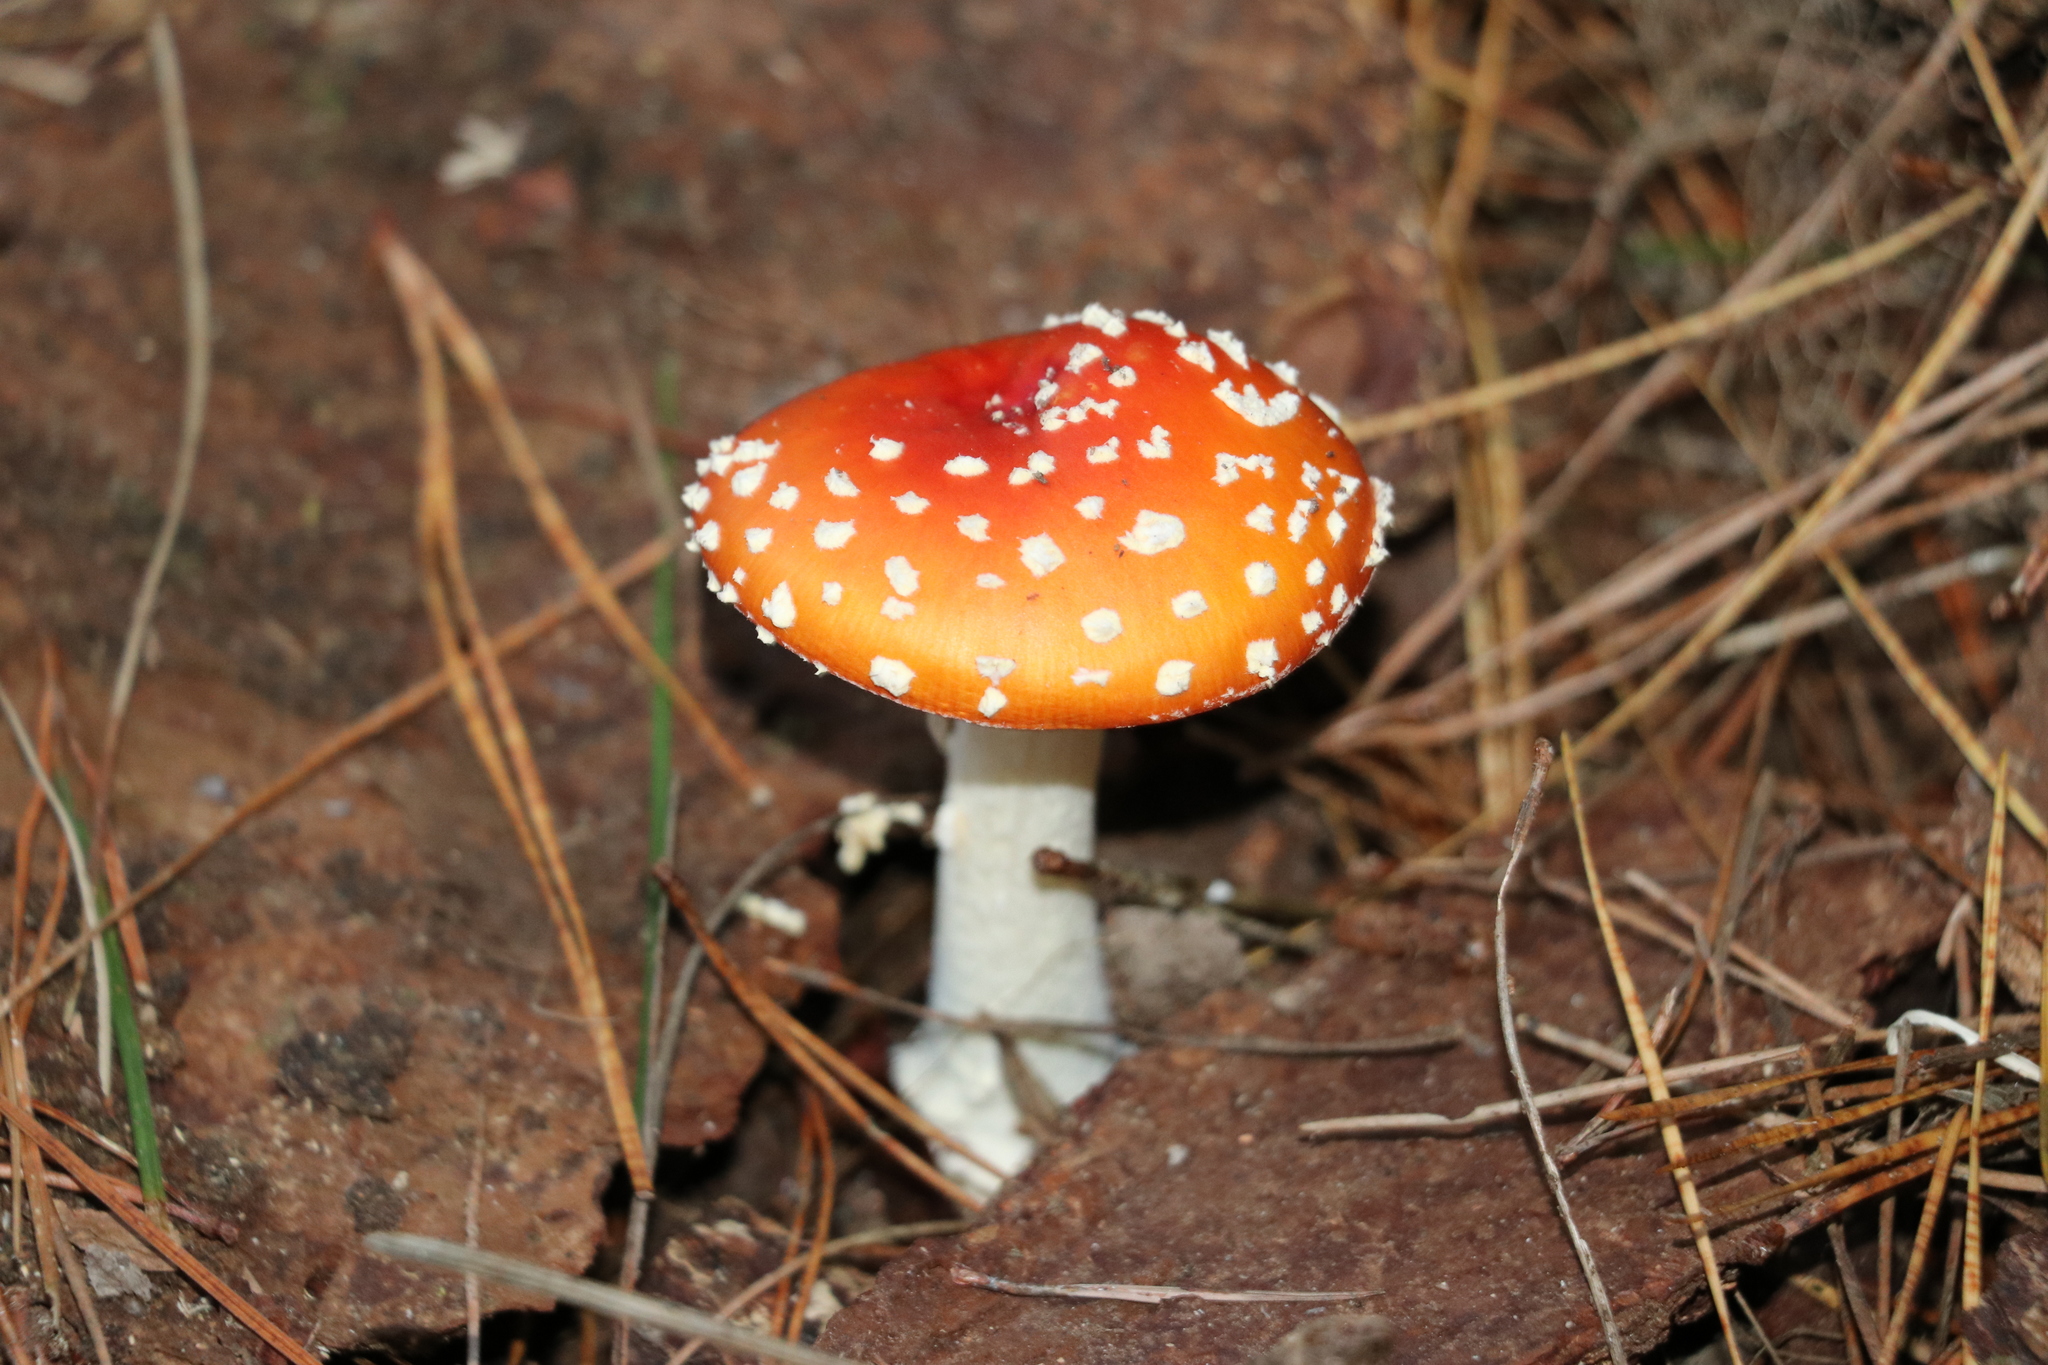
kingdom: Fungi
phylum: Basidiomycota
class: Agaricomycetes
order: Agaricales
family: Amanitaceae
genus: Amanita
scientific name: Amanita muscaria
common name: Fly agaric
